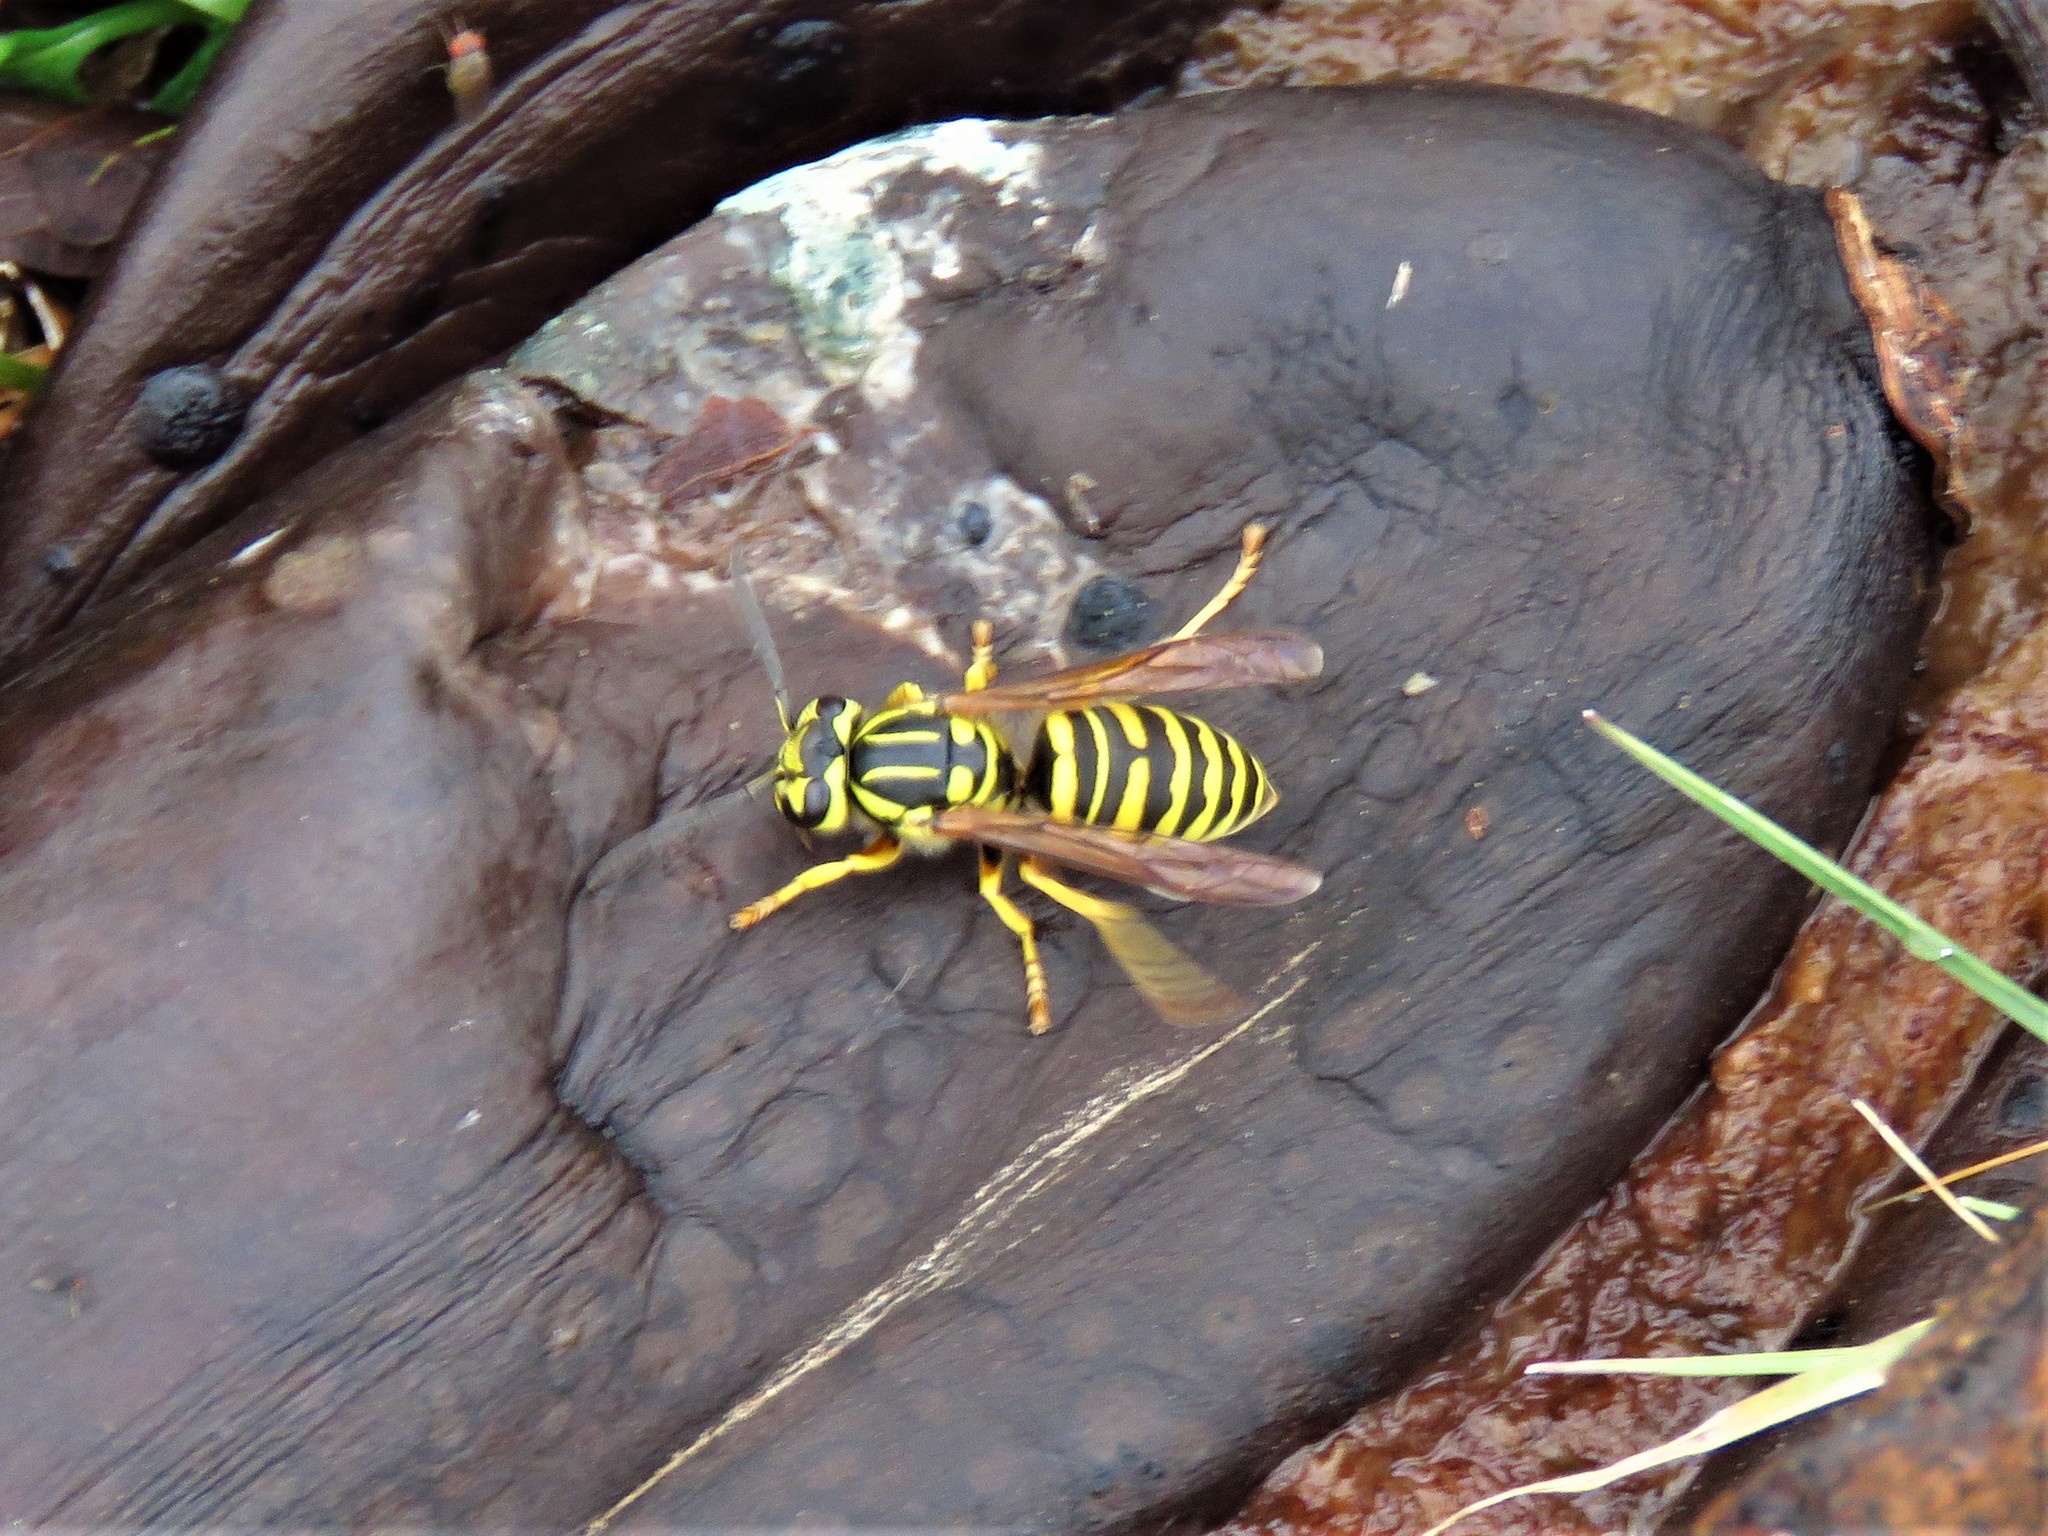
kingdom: Animalia
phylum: Arthropoda
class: Insecta
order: Hymenoptera
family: Vespidae
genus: Vespula
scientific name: Vespula squamosa
